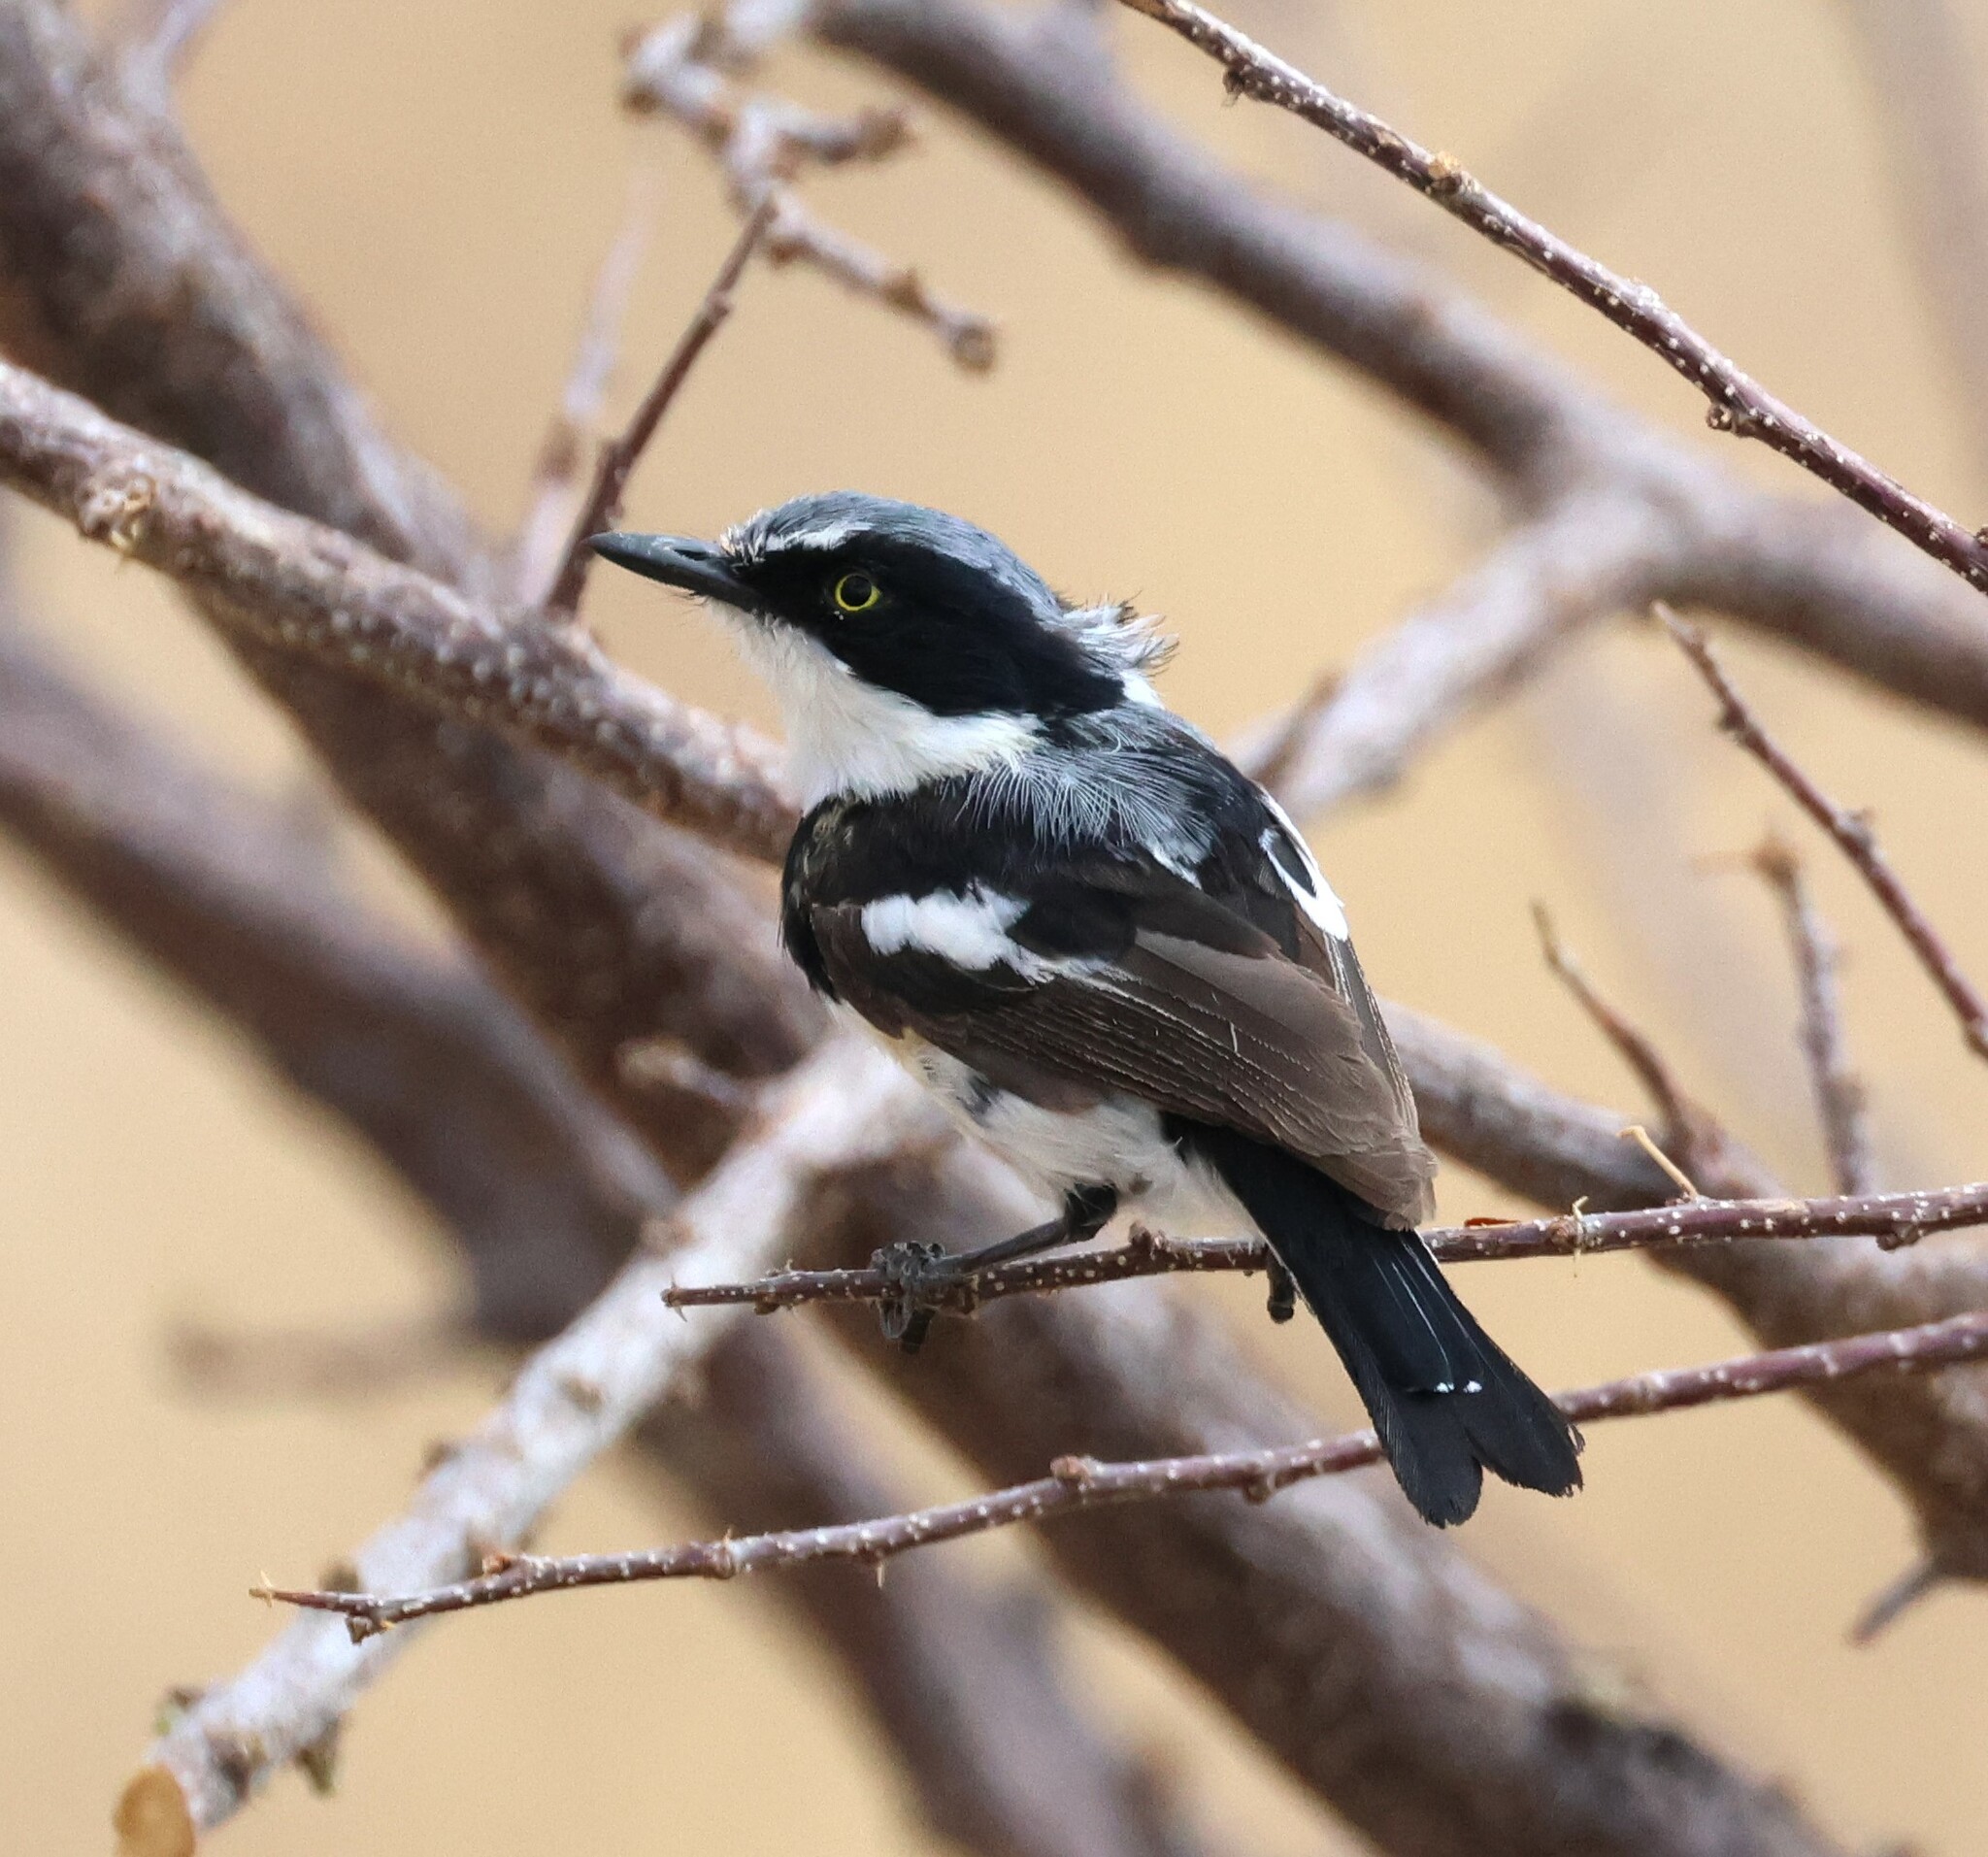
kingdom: Animalia
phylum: Chordata
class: Aves
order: Passeriformes
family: Platysteiridae
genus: Batis
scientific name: Batis pririt
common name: Pririt batis
